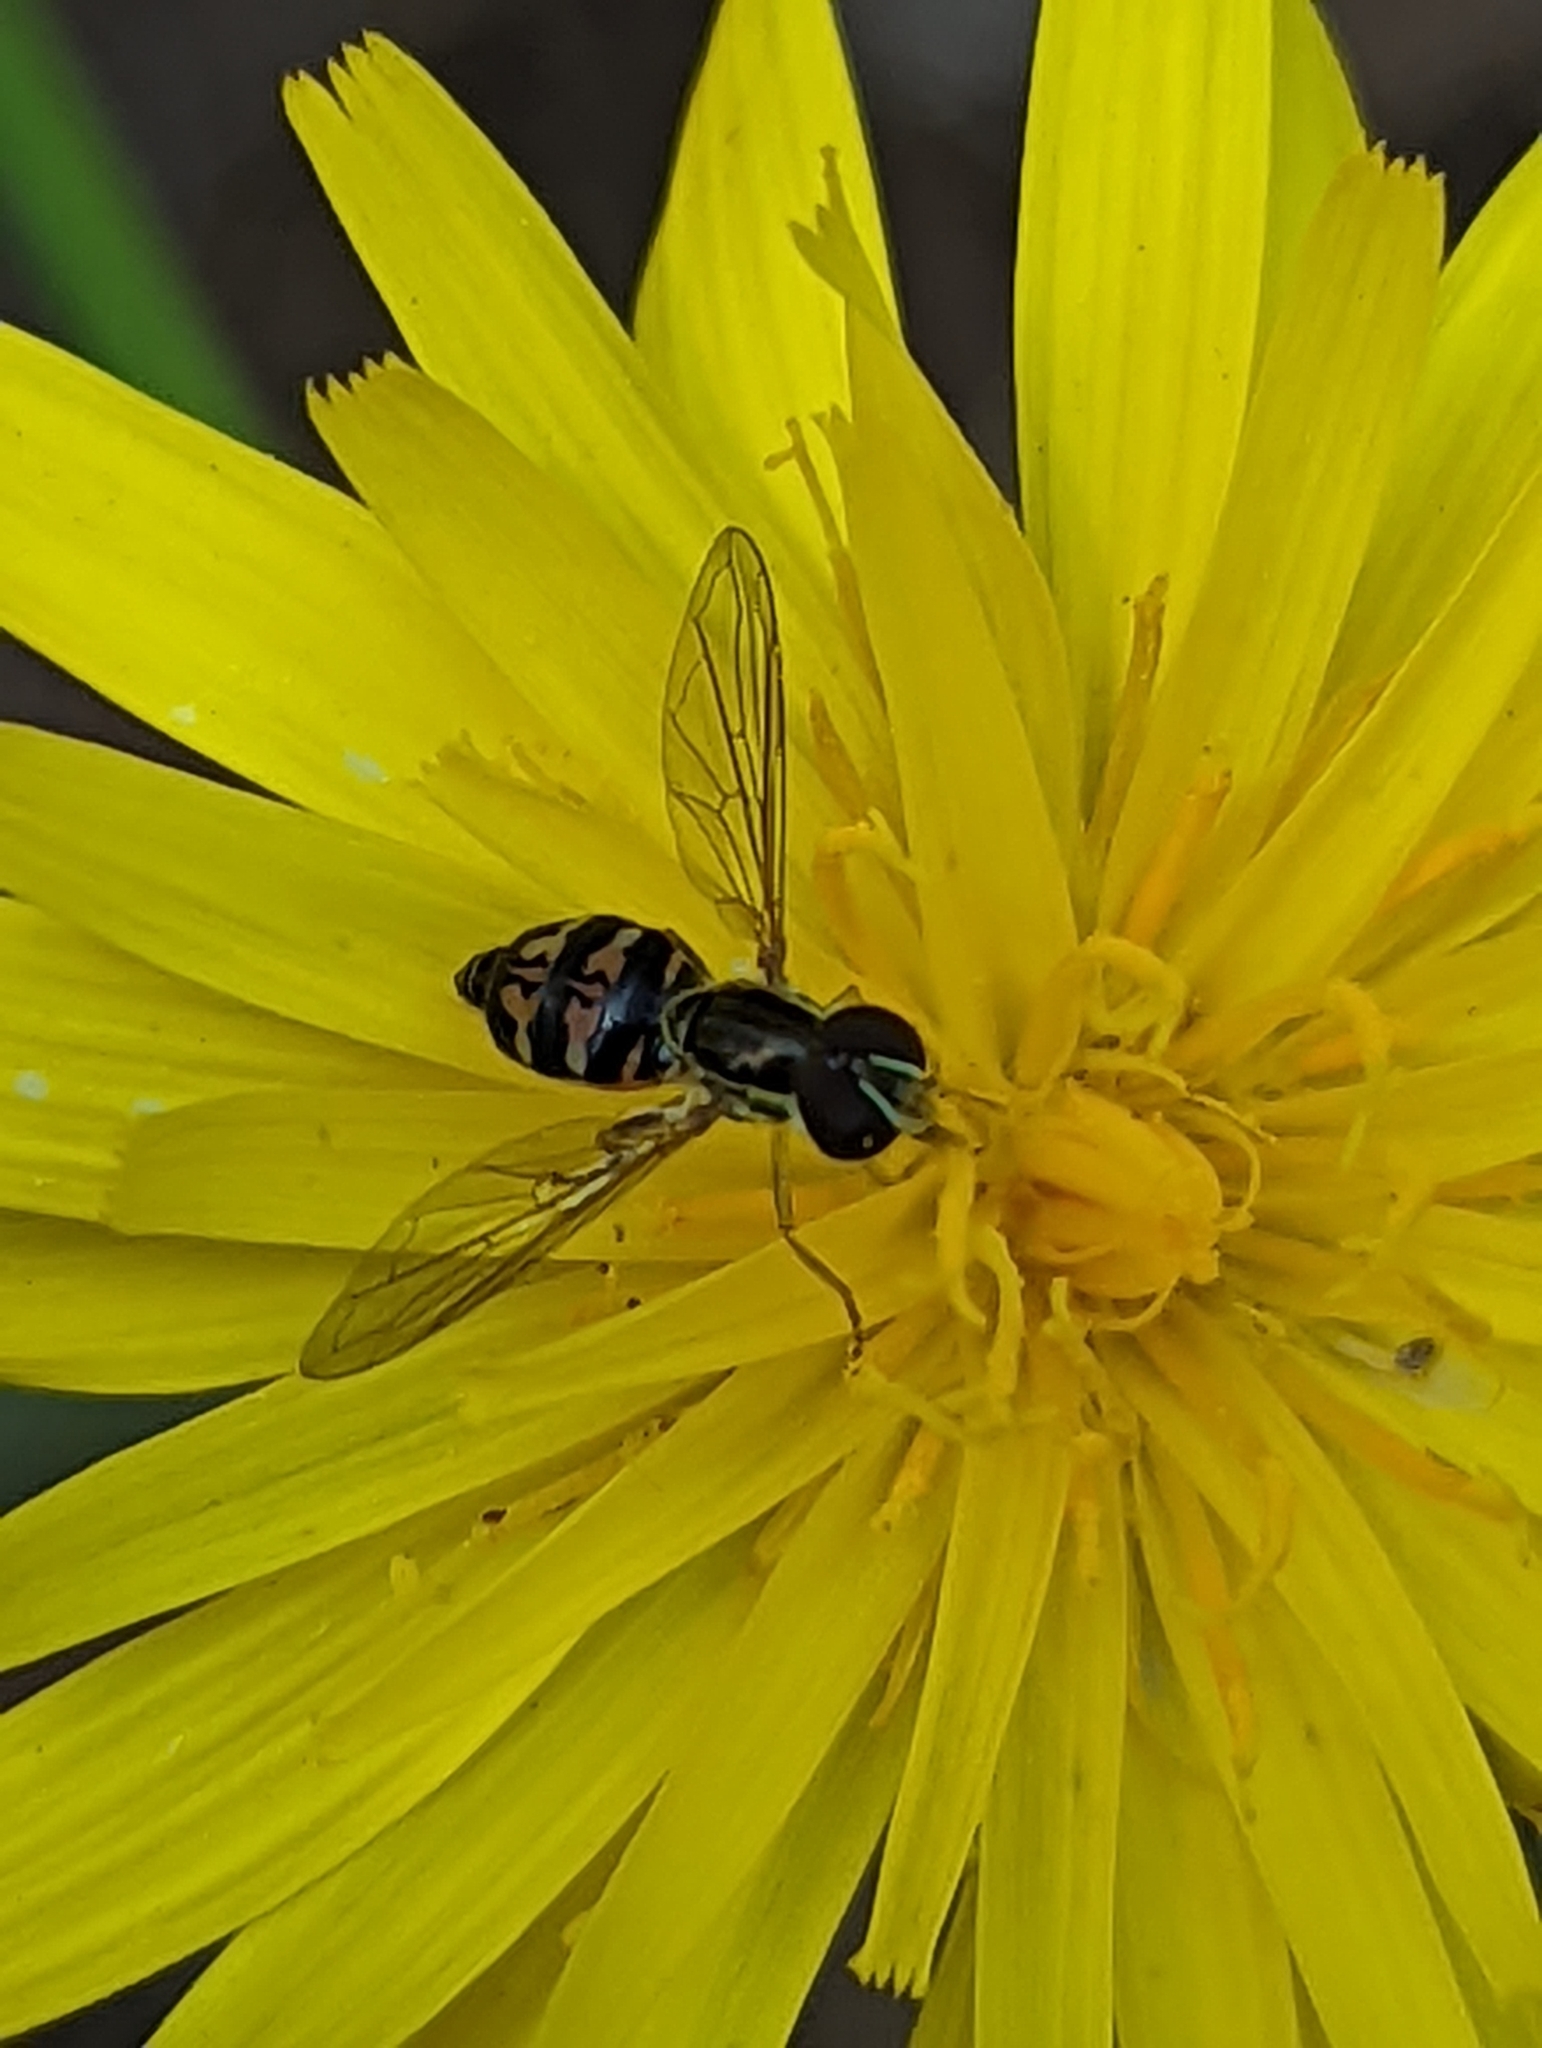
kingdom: Animalia
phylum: Arthropoda
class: Insecta
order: Diptera
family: Syrphidae
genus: Toxomerus
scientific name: Toxomerus occidentalis
